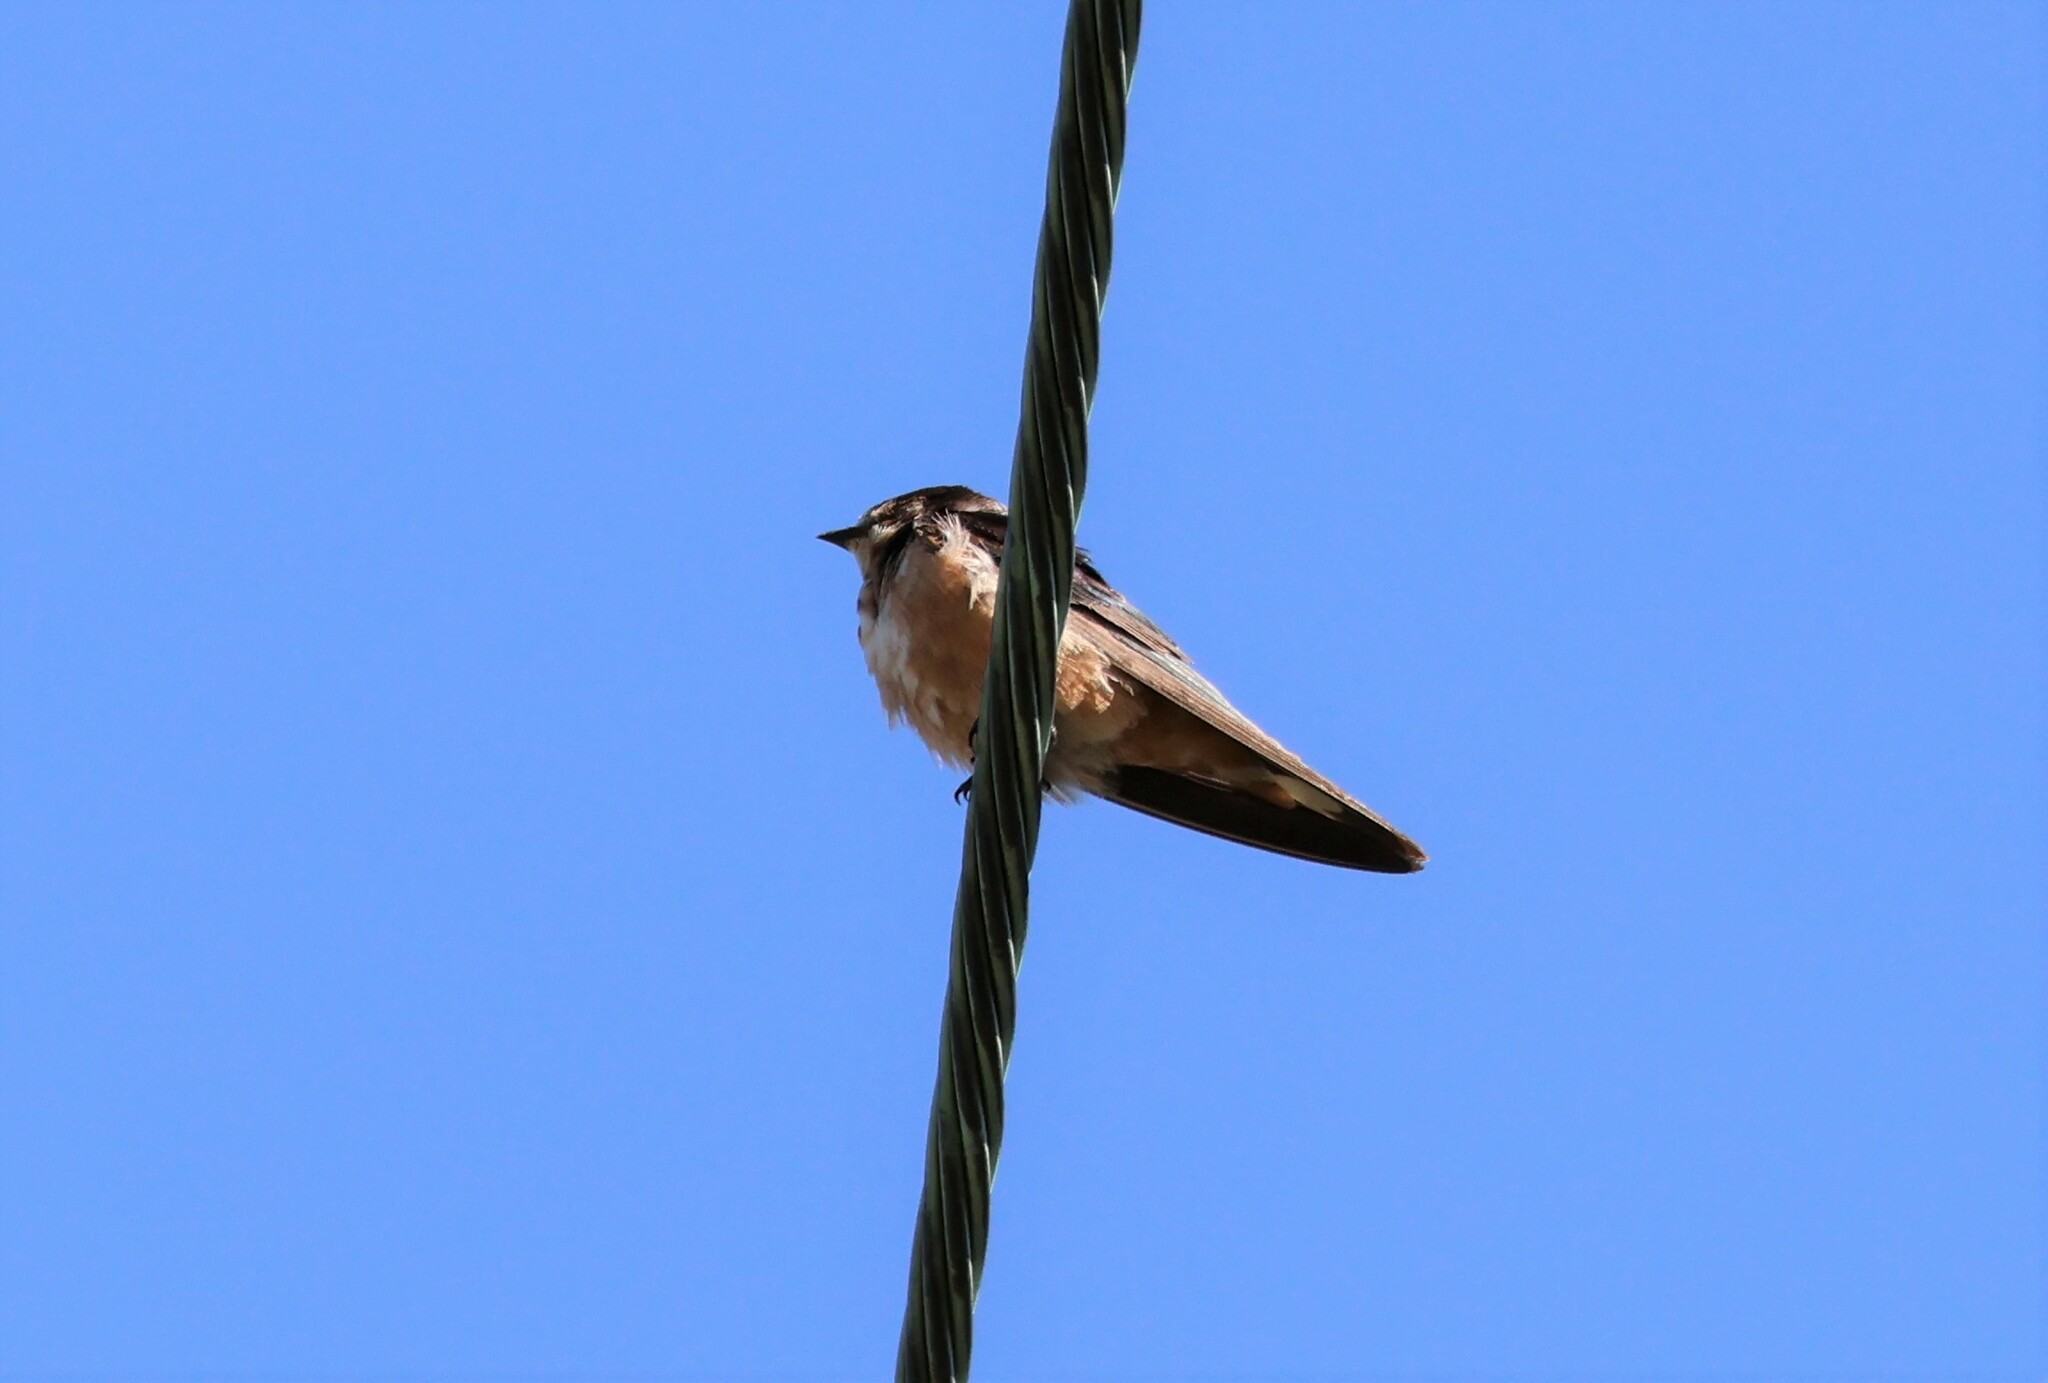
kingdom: Animalia
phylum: Chordata
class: Aves
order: Passeriformes
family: Hirundinidae
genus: Hirundo
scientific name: Hirundo rustica
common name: Barn swallow
